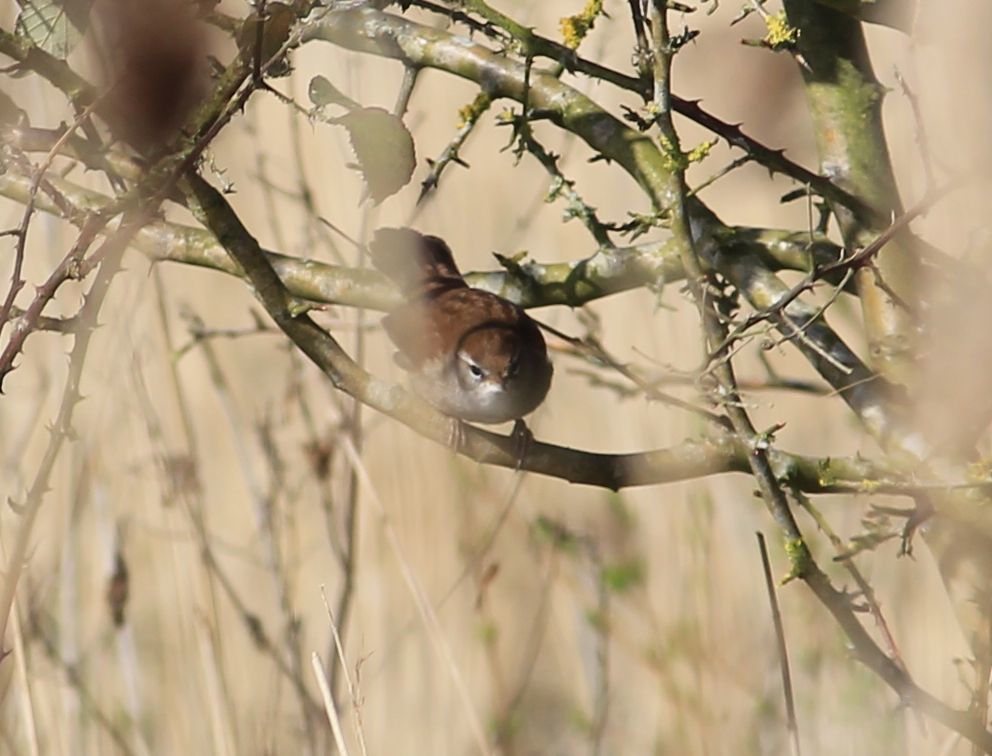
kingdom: Animalia
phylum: Chordata
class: Aves
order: Passeriformes
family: Cettiidae
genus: Cettia
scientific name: Cettia cetti
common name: Cetti's warbler
